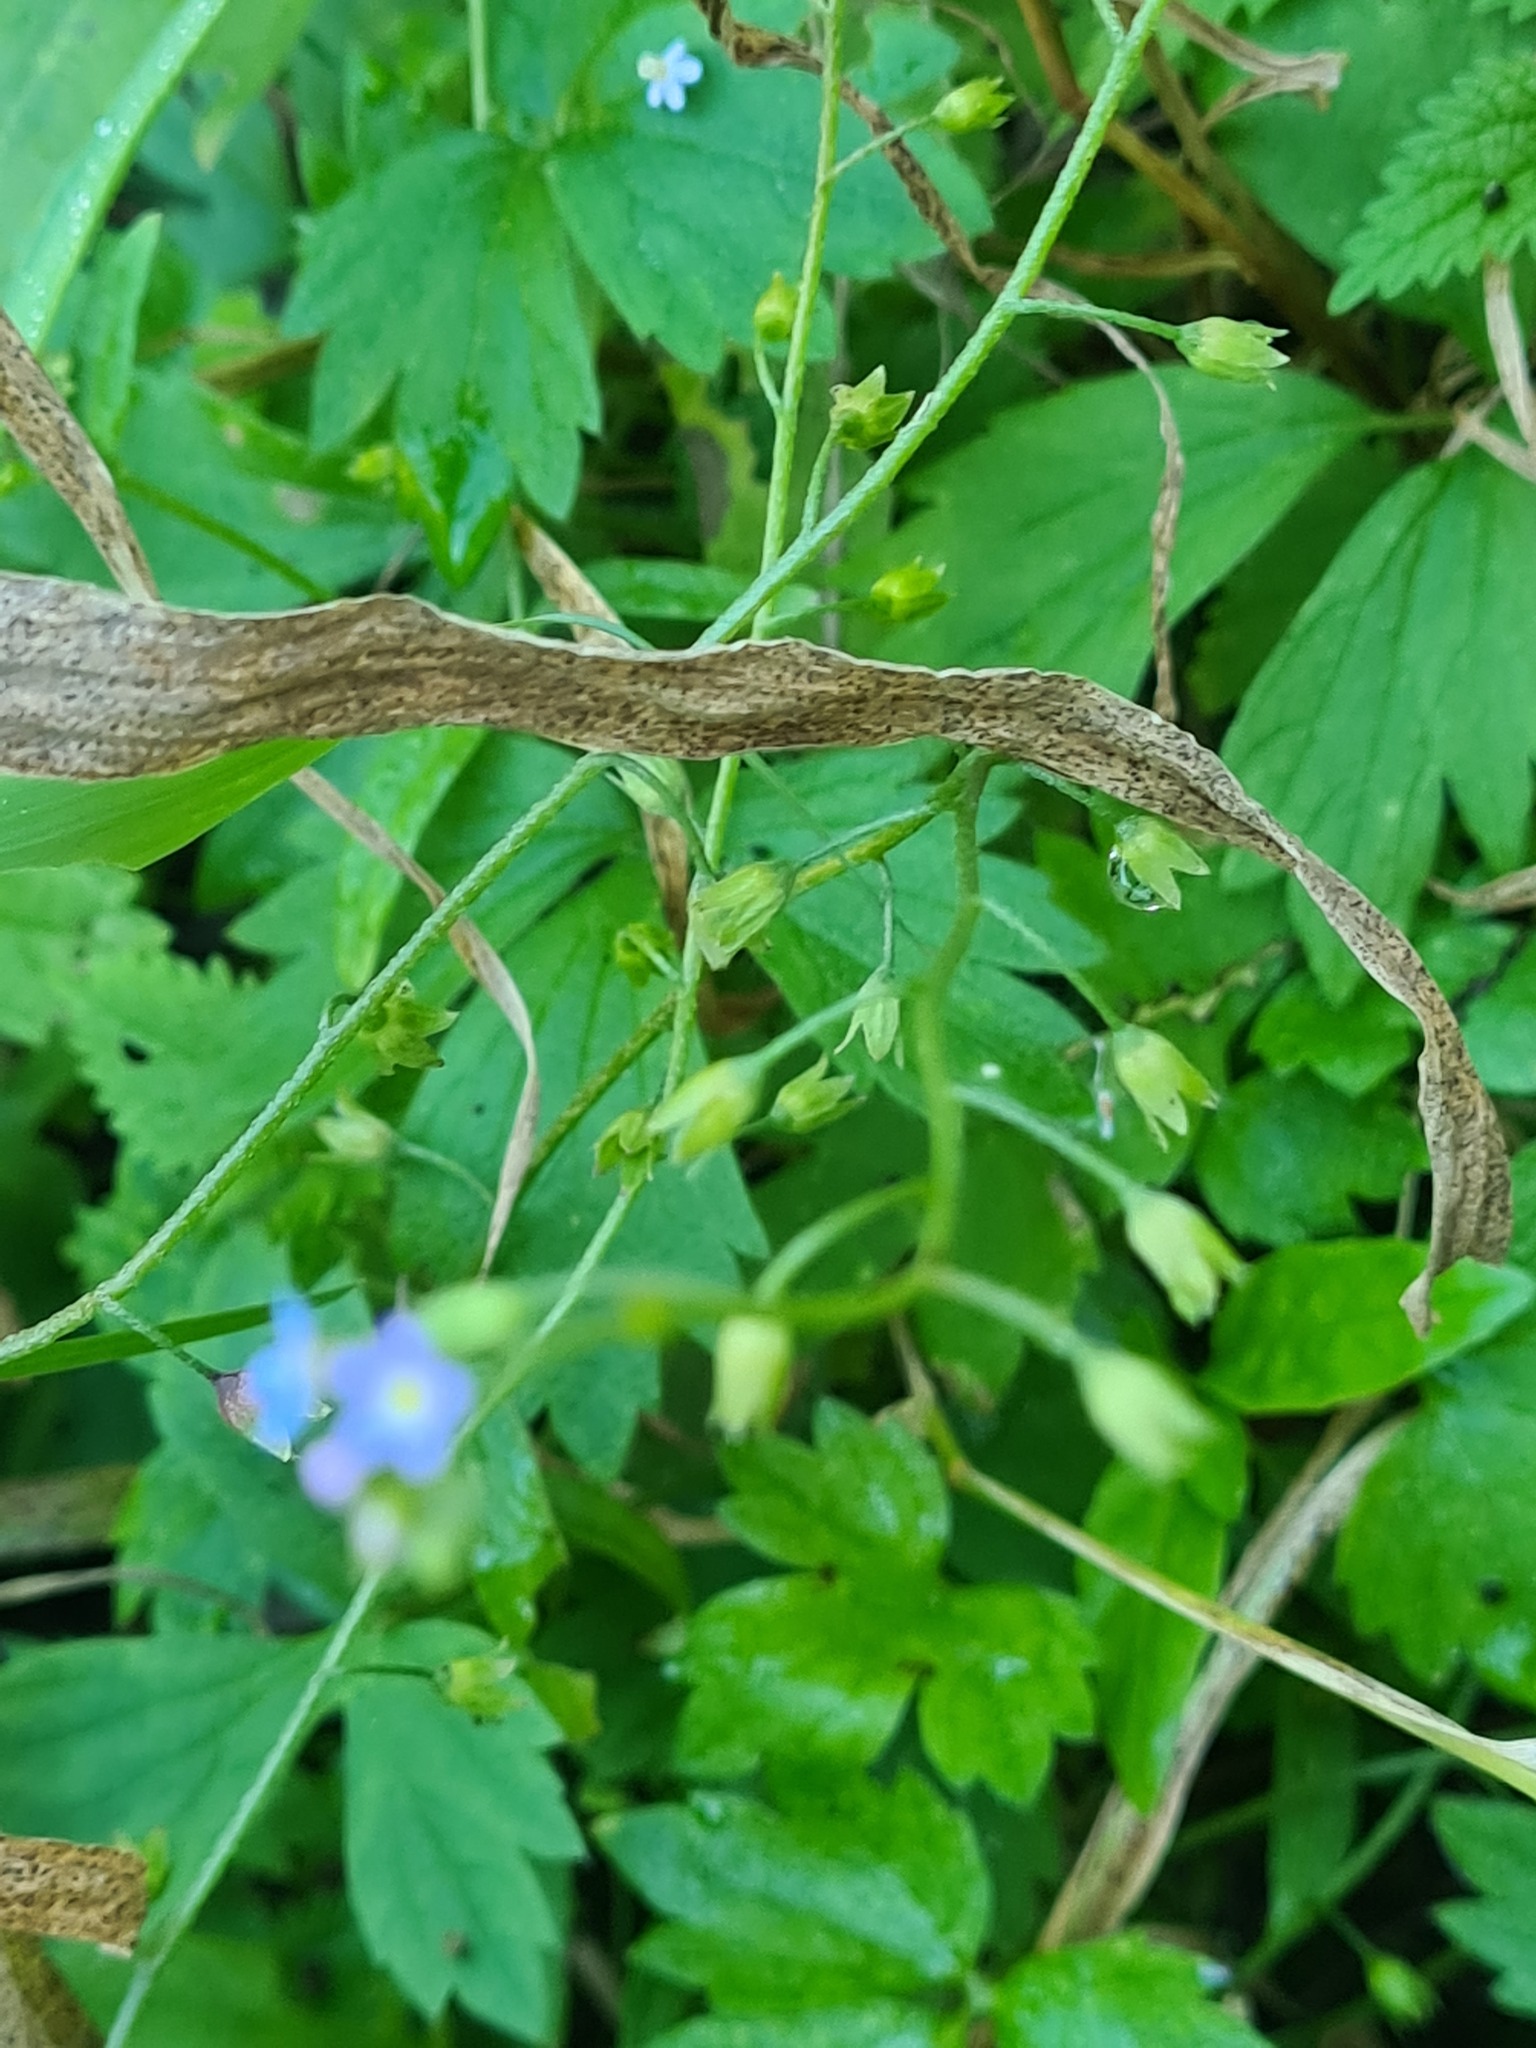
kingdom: Plantae
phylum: Tracheophyta
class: Magnoliopsida
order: Boraginales
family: Boraginaceae
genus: Myosotis
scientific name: Myosotis scorpioides
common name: Water forget-me-not
